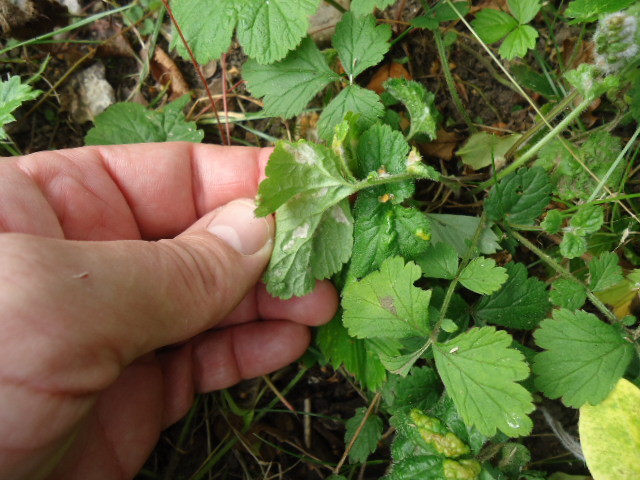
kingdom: Plantae
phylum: Tracheophyta
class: Magnoliopsida
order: Rosales
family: Rosaceae
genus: Geum
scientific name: Geum urbanum
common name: Wood avens
